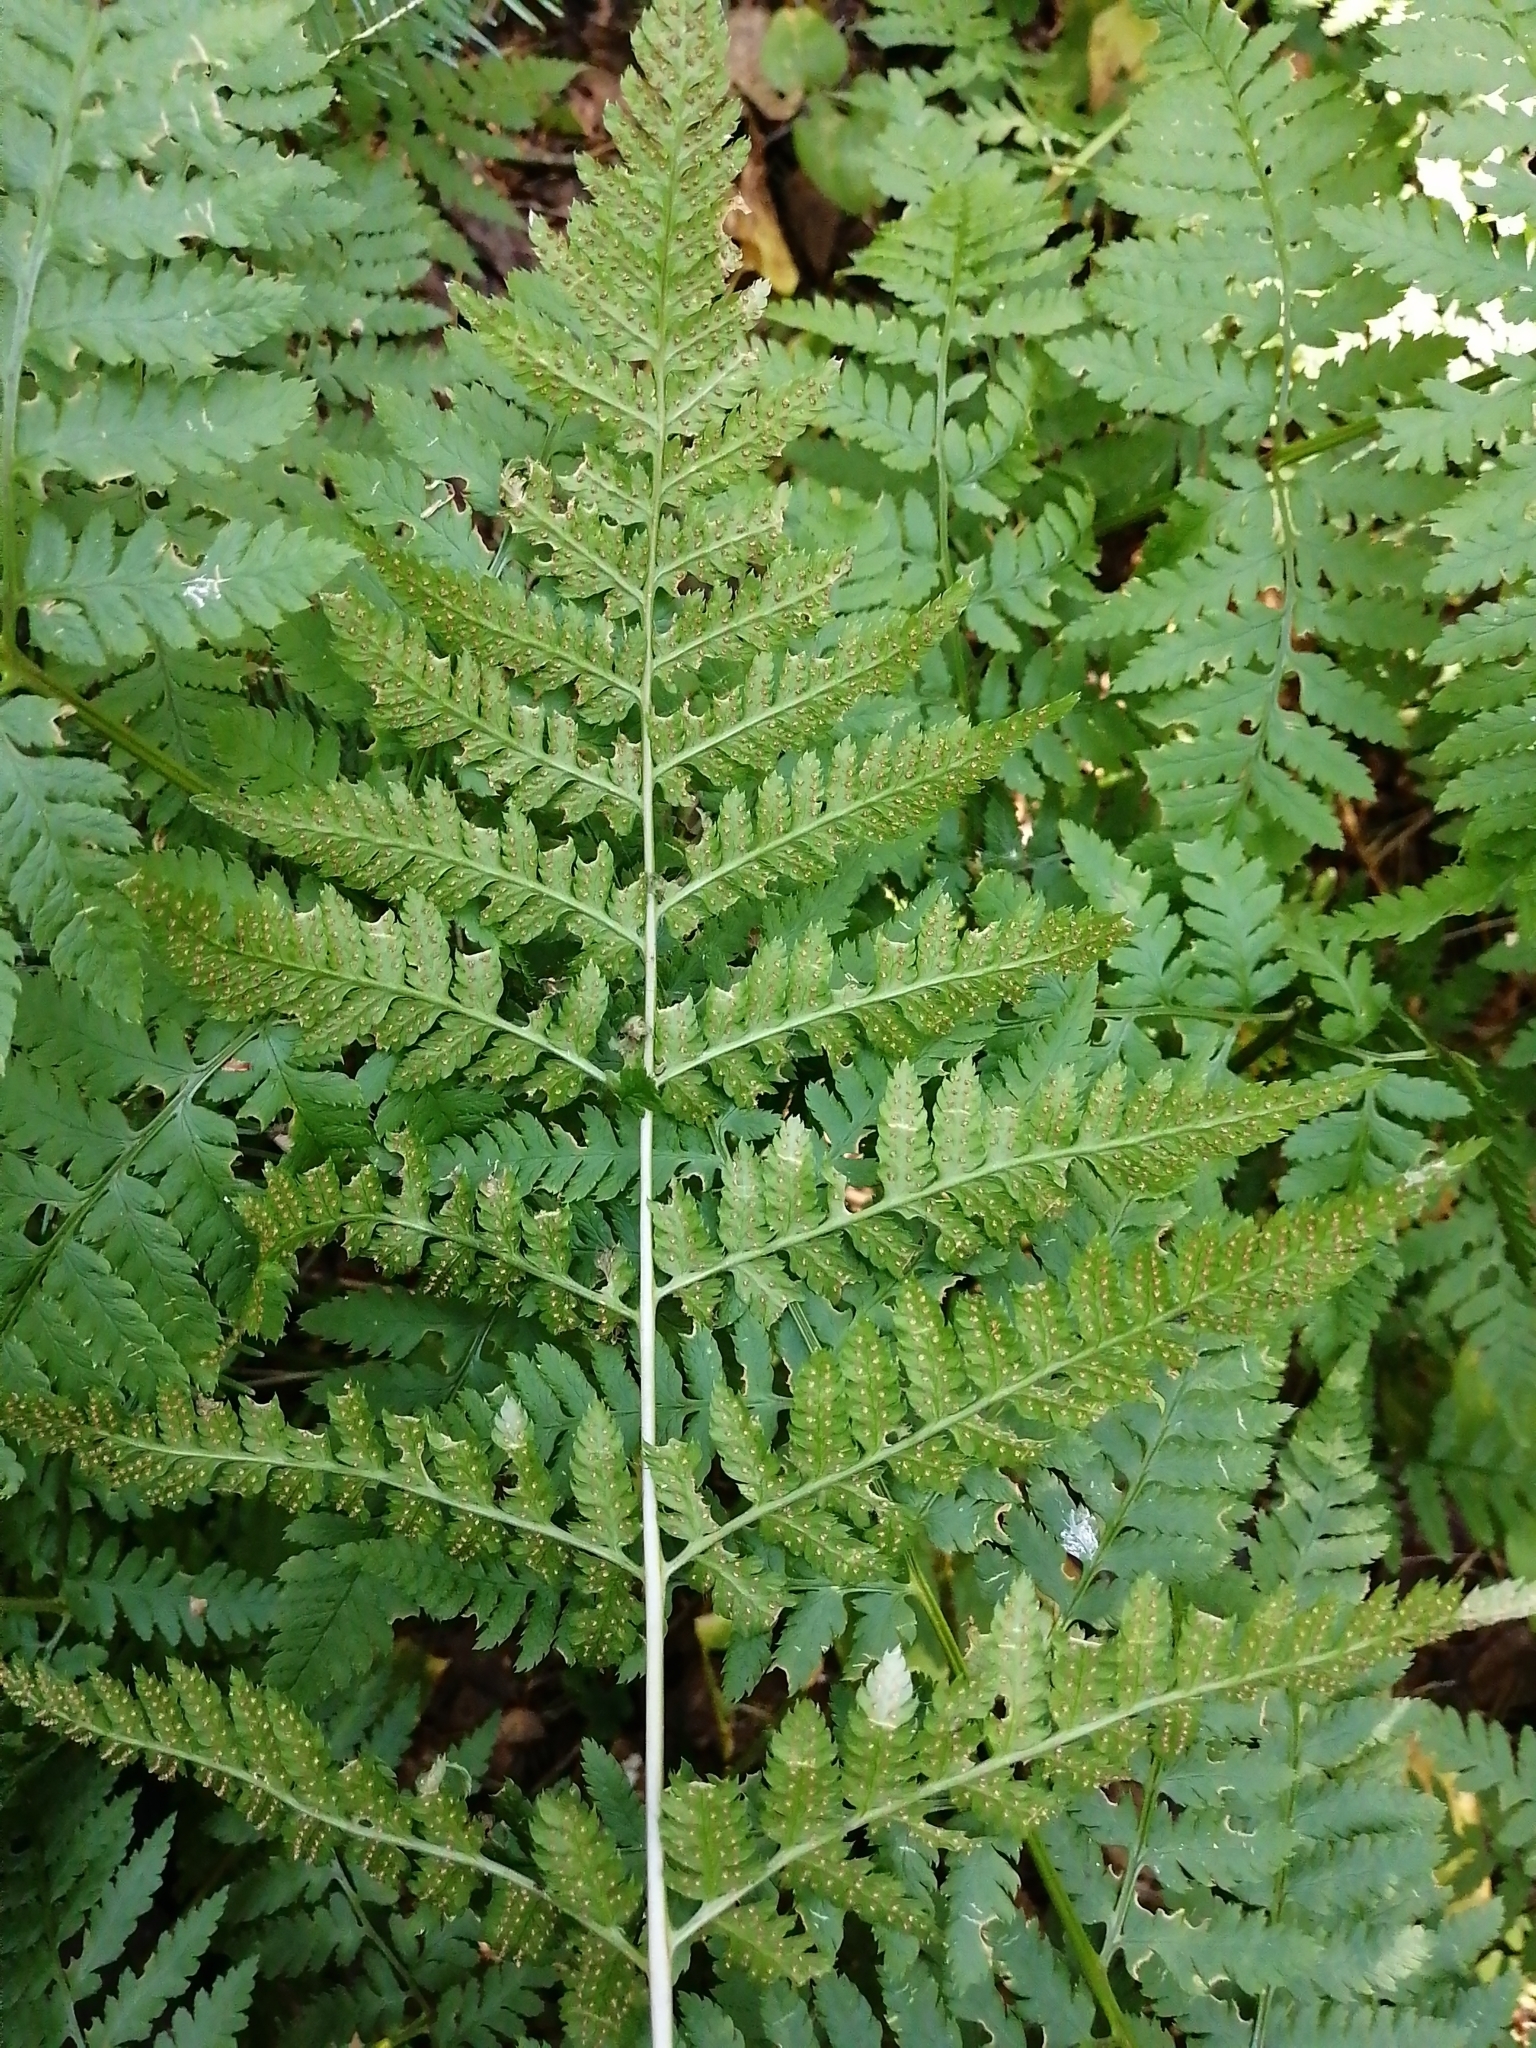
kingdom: Plantae
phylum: Tracheophyta
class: Polypodiopsida
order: Polypodiales
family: Dryopteridaceae
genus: Dryopteris
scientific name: Dryopteris expansa
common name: Northern buckler fern
